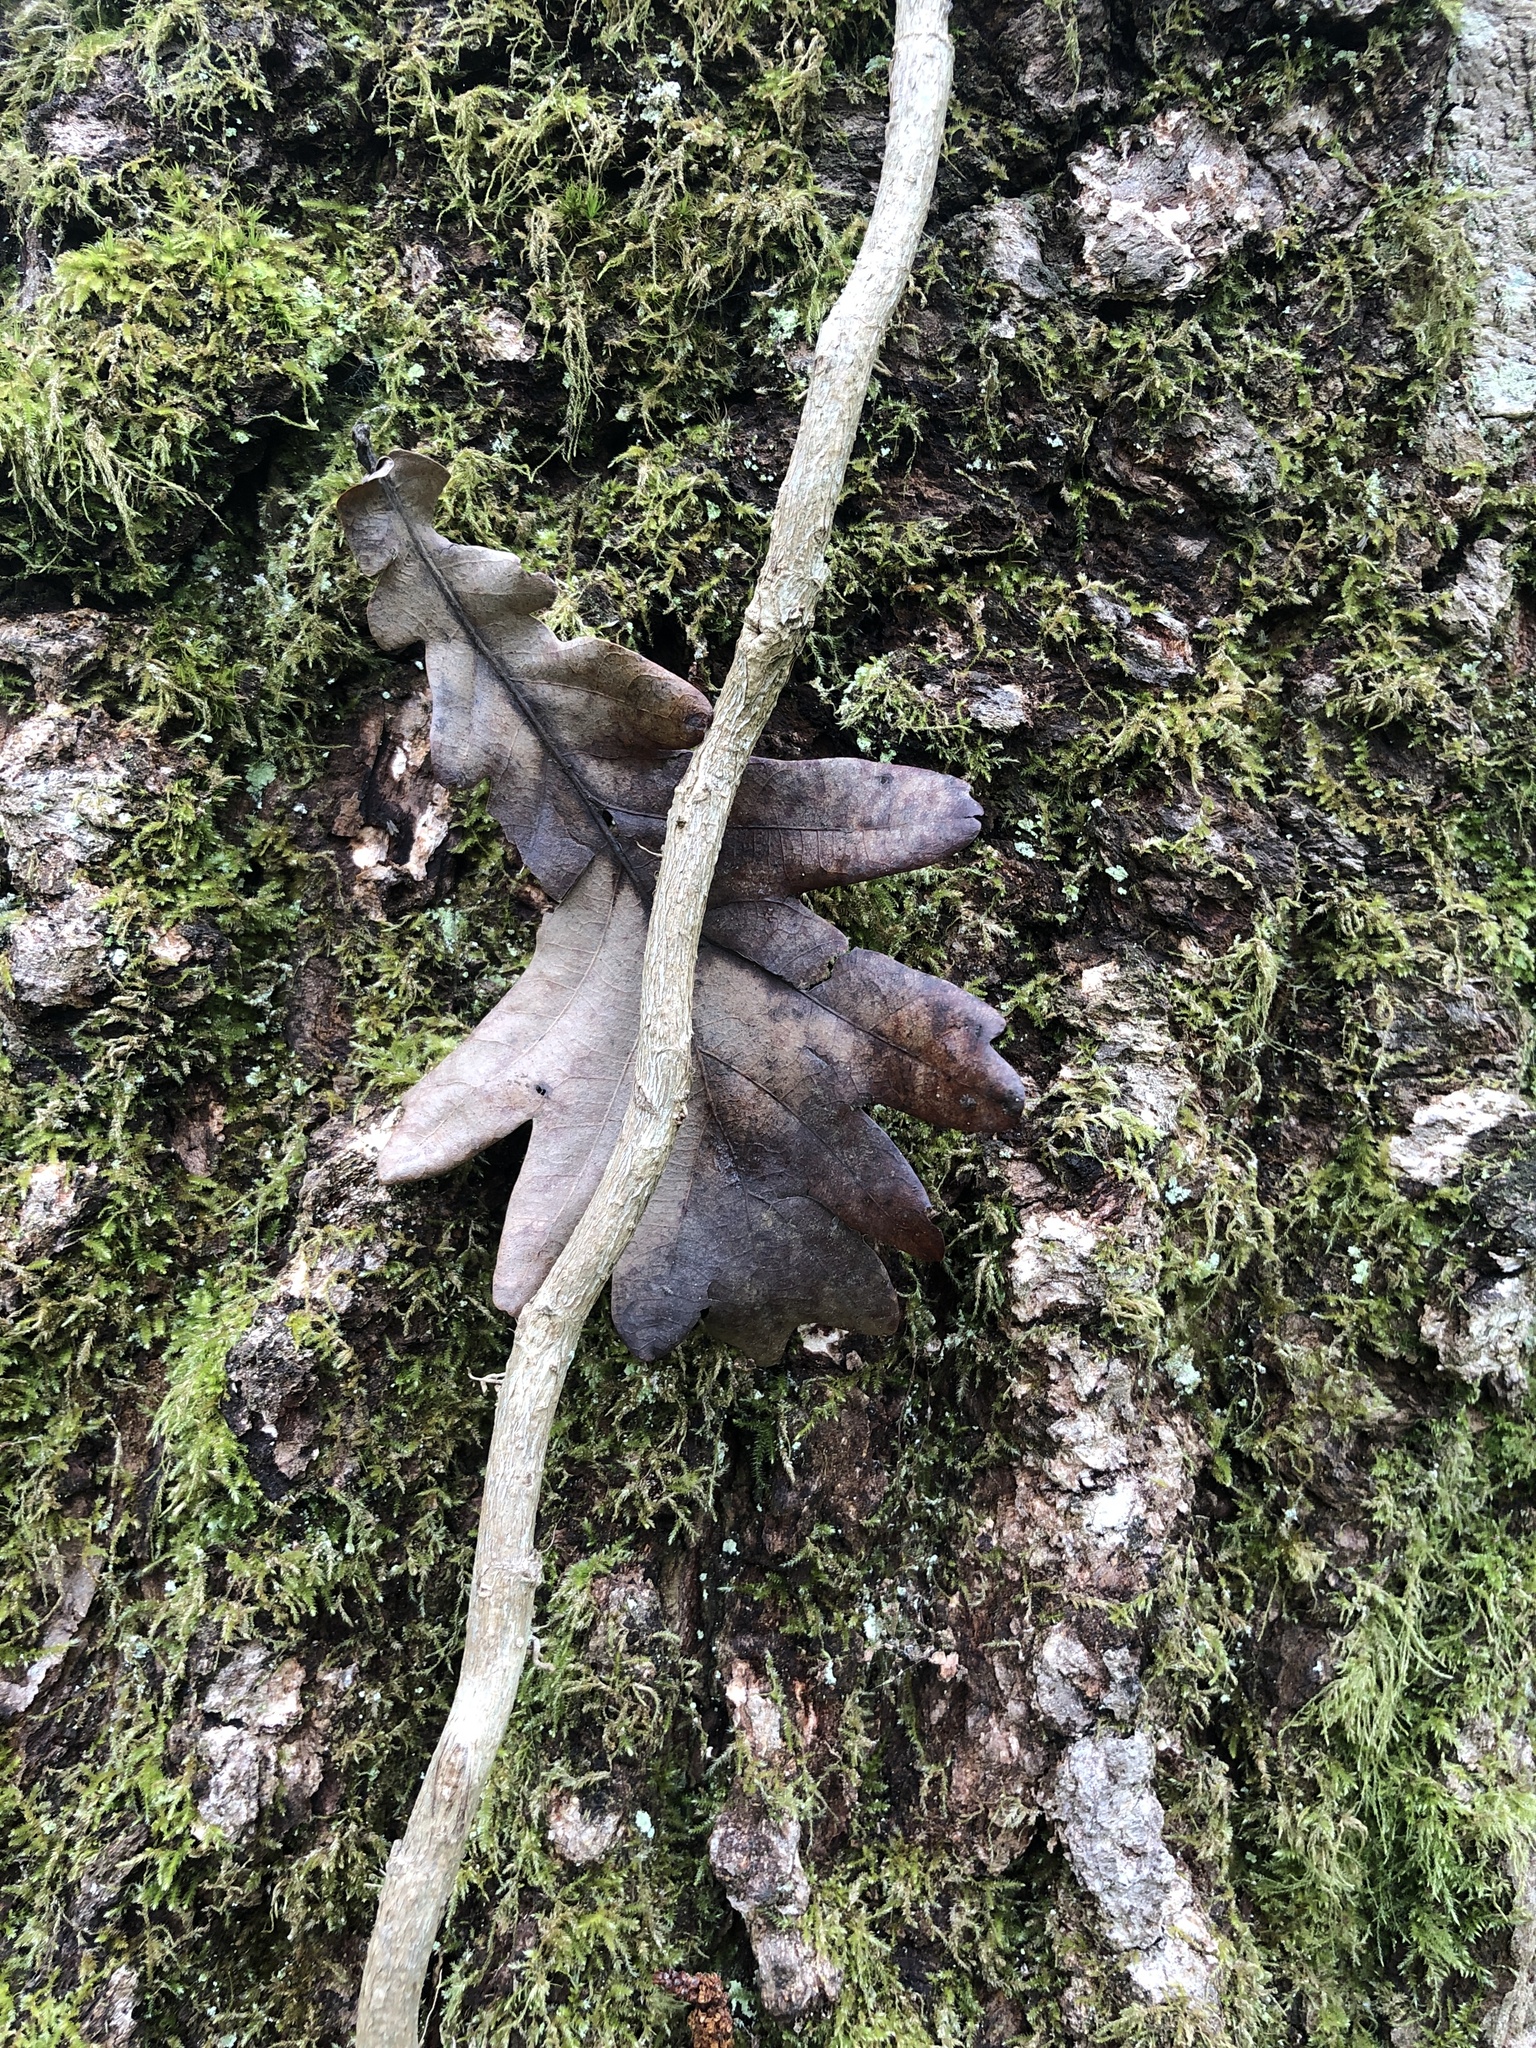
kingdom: Plantae
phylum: Tracheophyta
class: Magnoliopsida
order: Fagales
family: Fagaceae
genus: Quercus
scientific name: Quercus robur
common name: Pedunculate oak
